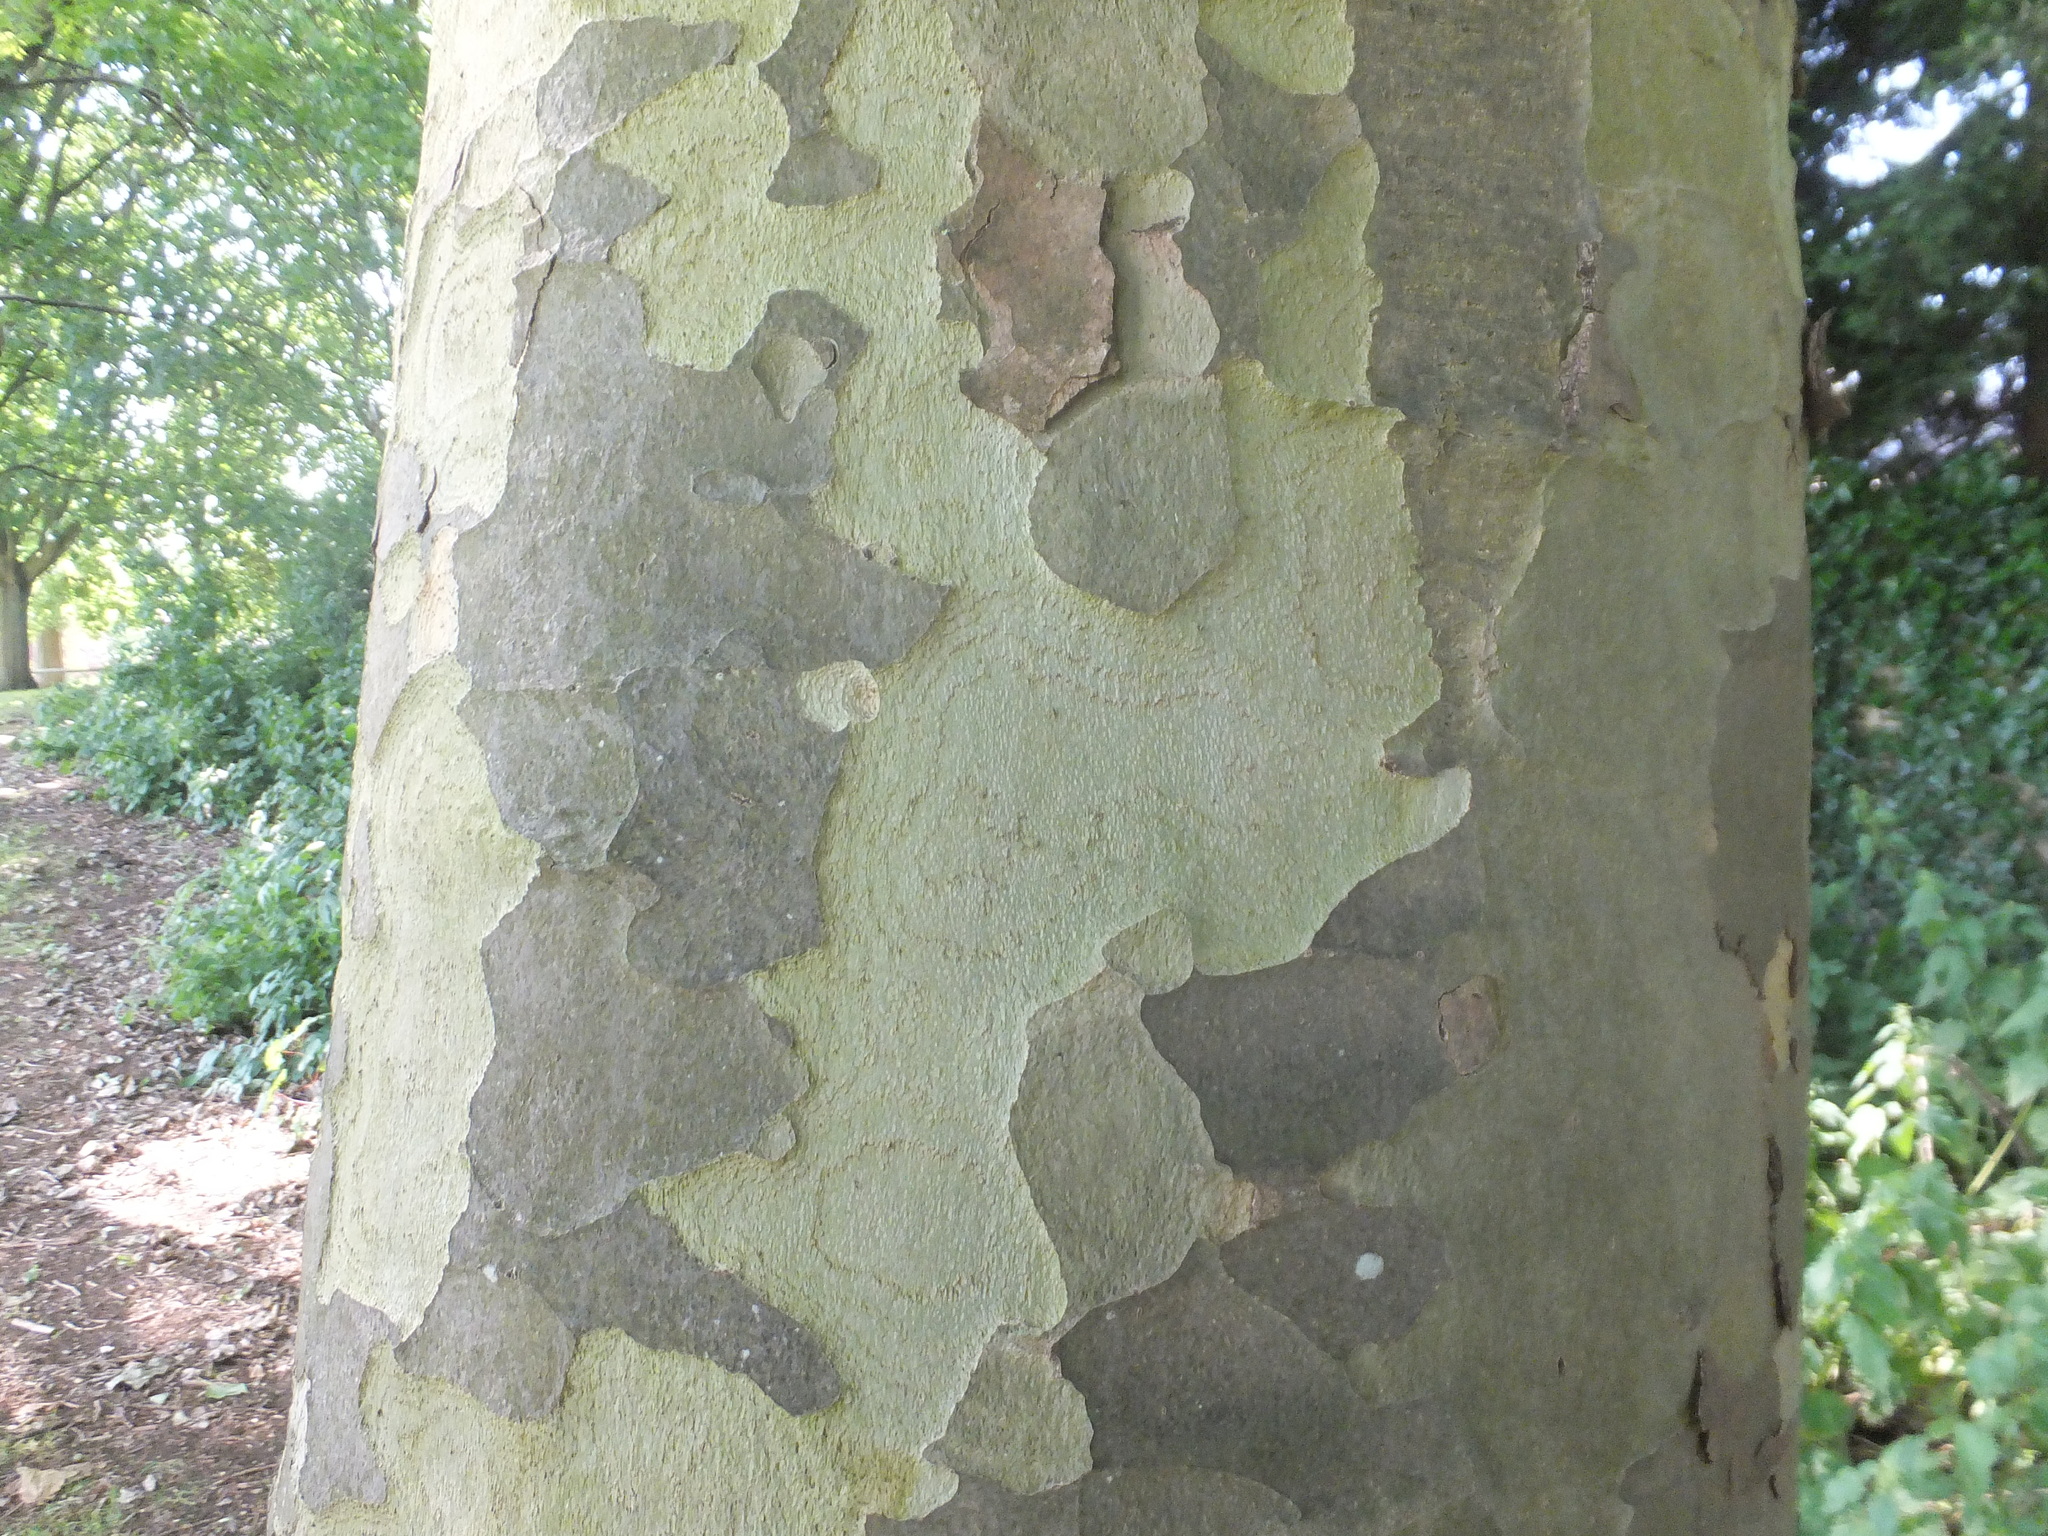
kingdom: Plantae
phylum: Tracheophyta
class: Magnoliopsida
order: Proteales
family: Platanaceae
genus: Platanus
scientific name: Platanus hispanica
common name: London plane
